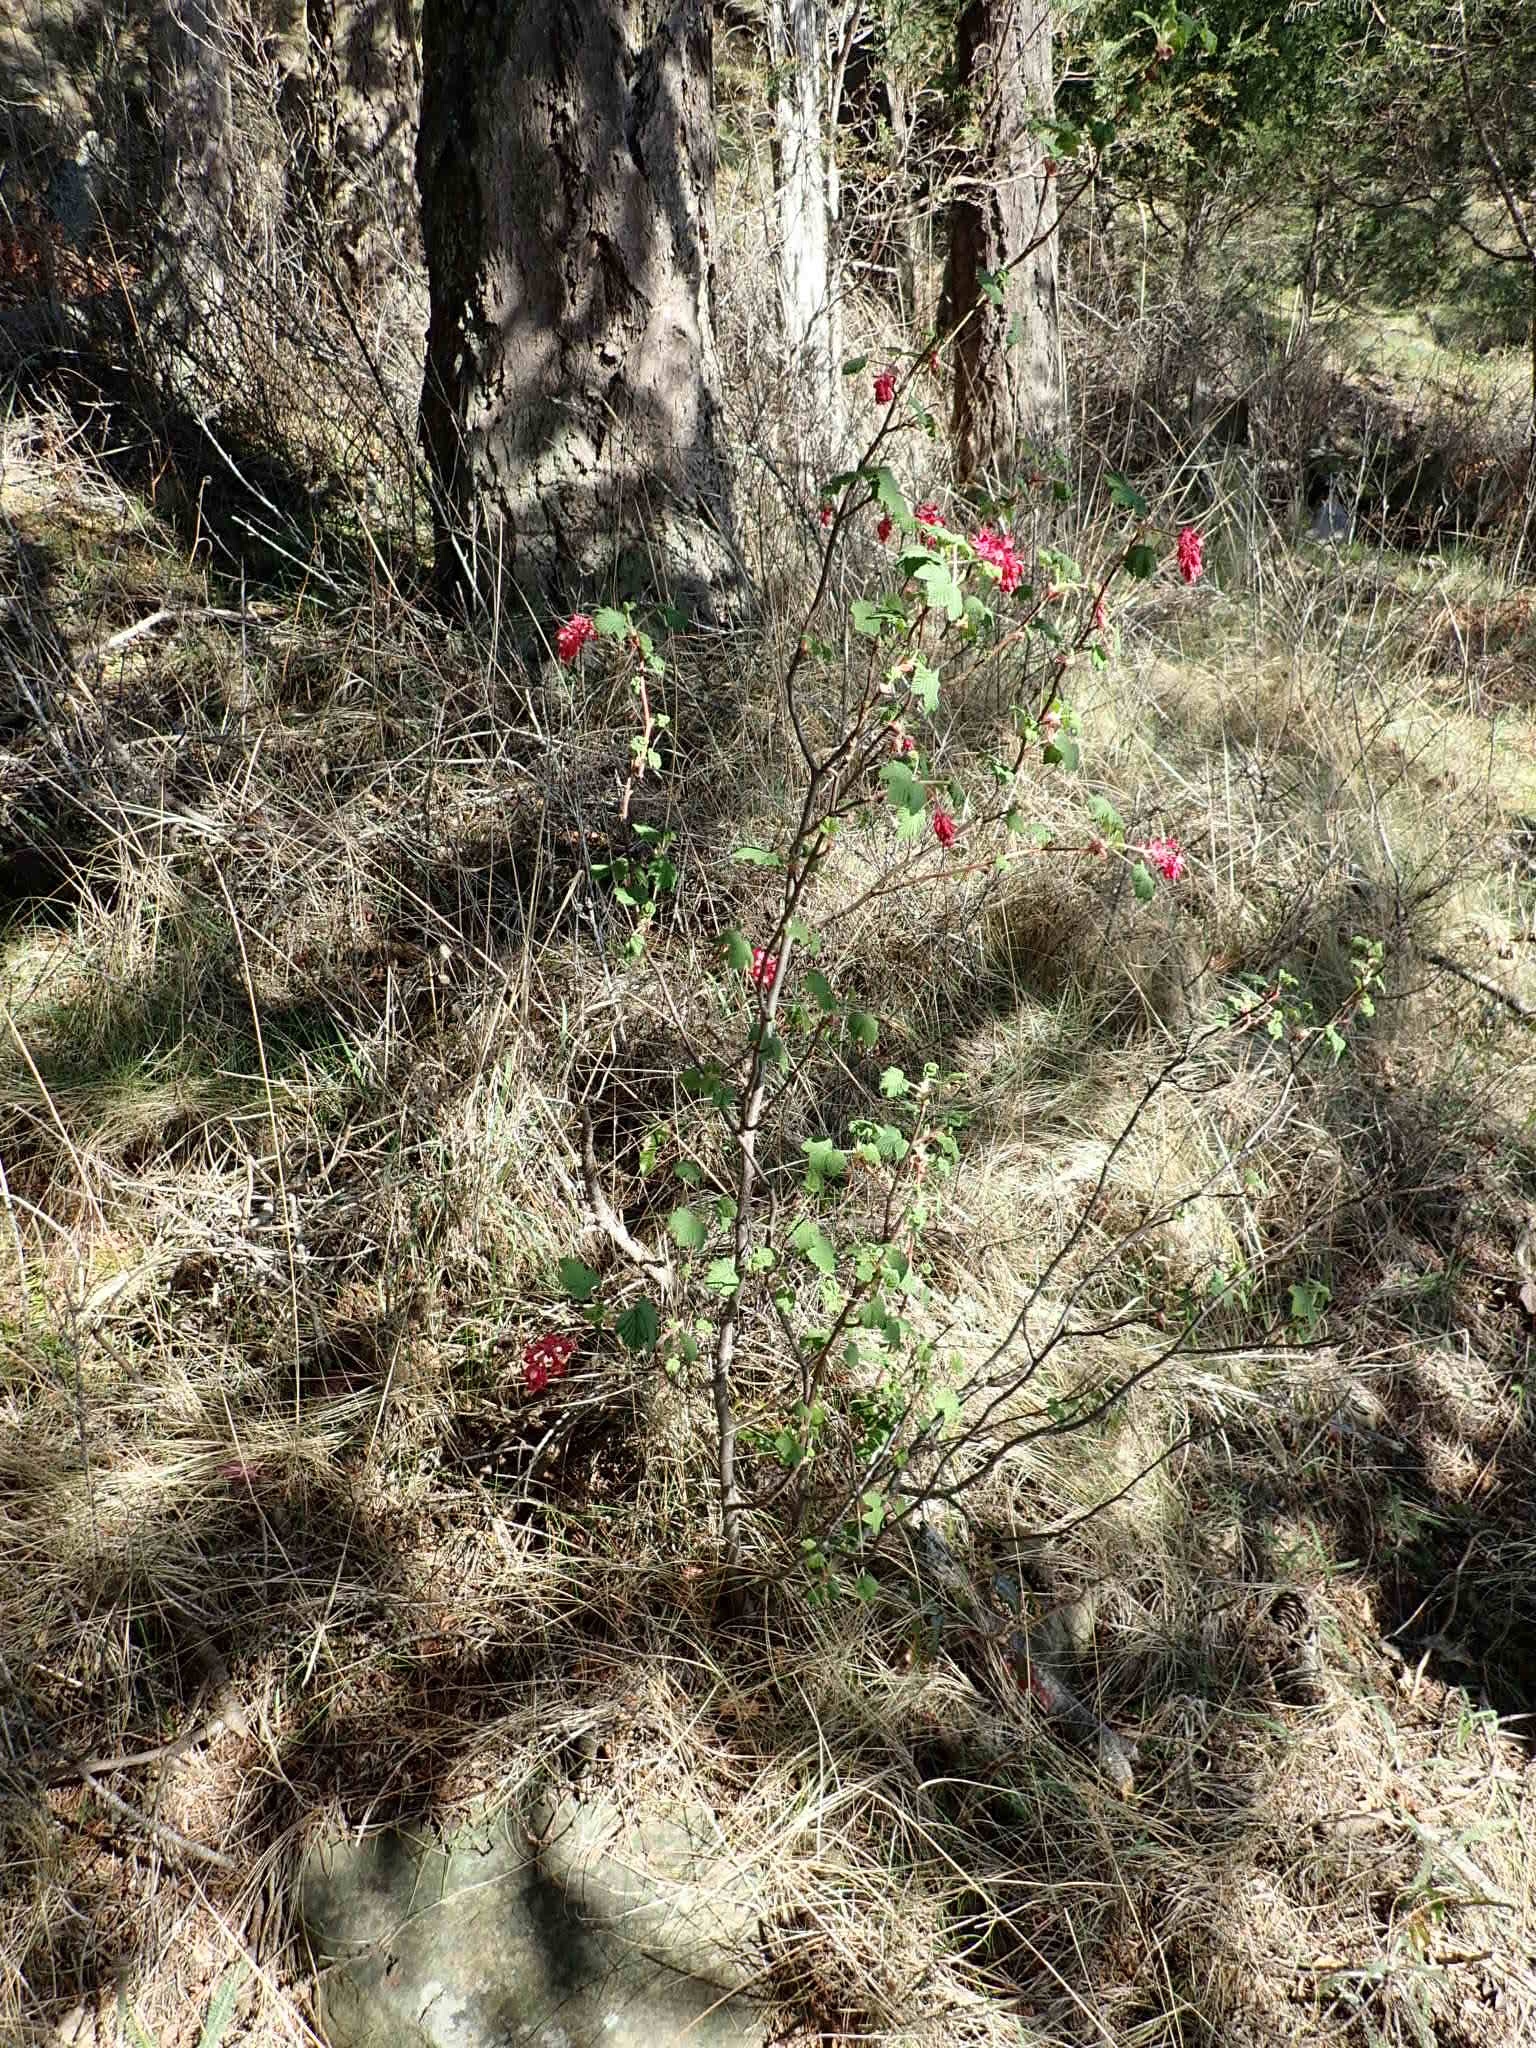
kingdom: Plantae
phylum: Tracheophyta
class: Magnoliopsida
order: Saxifragales
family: Grossulariaceae
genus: Ribes
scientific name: Ribes sanguineum
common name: Flowering currant
